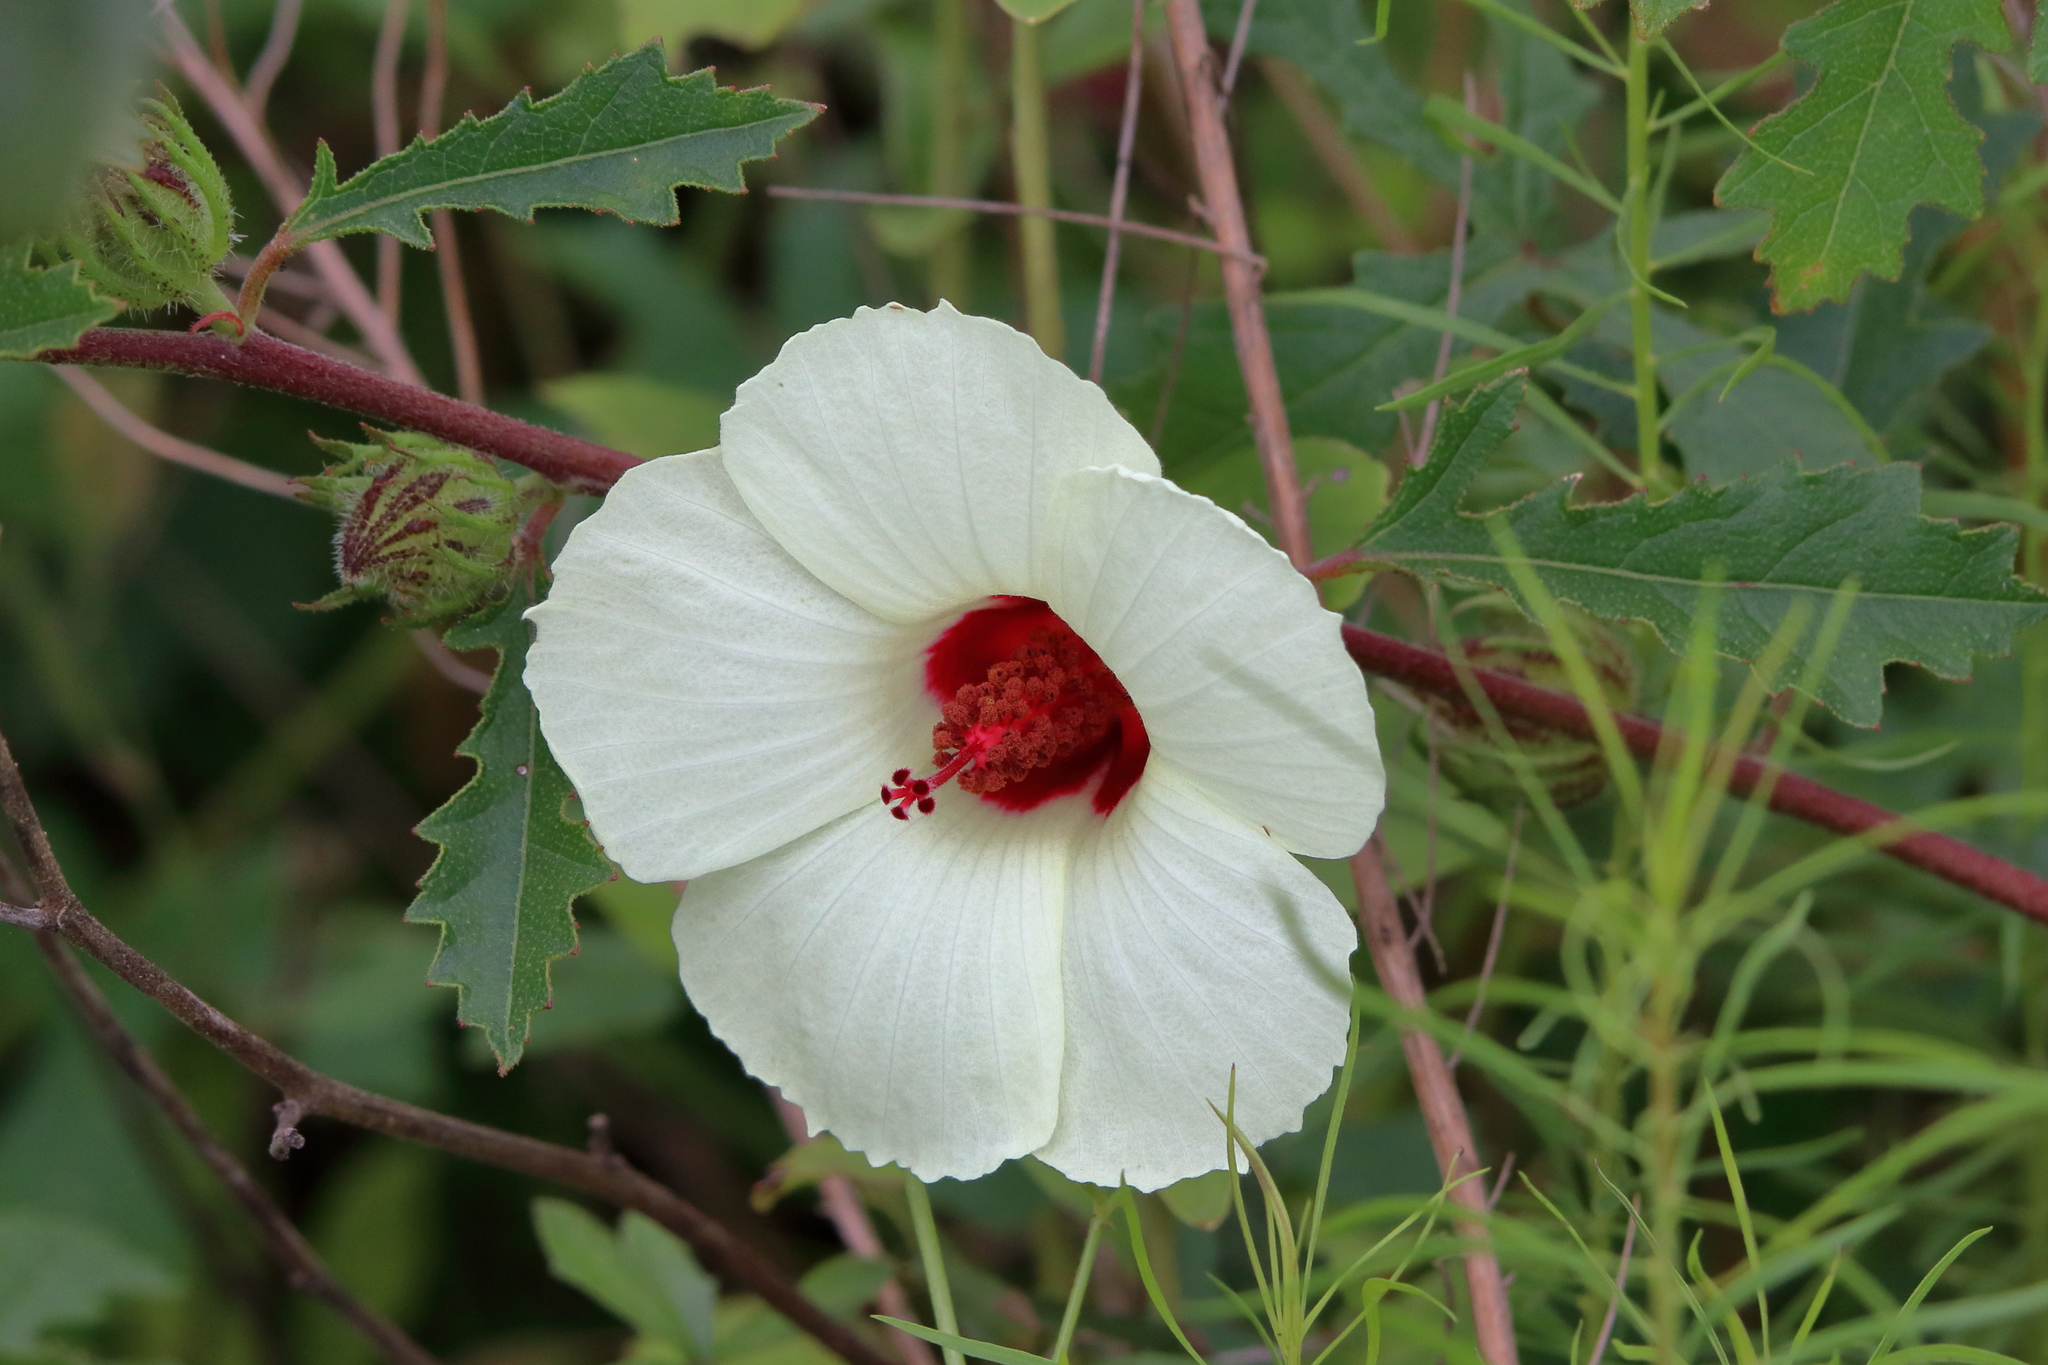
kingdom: Plantae
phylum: Tracheophyta
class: Magnoliopsida
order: Malvales
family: Malvaceae
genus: Hibiscus
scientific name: Hibiscus aculeatus
